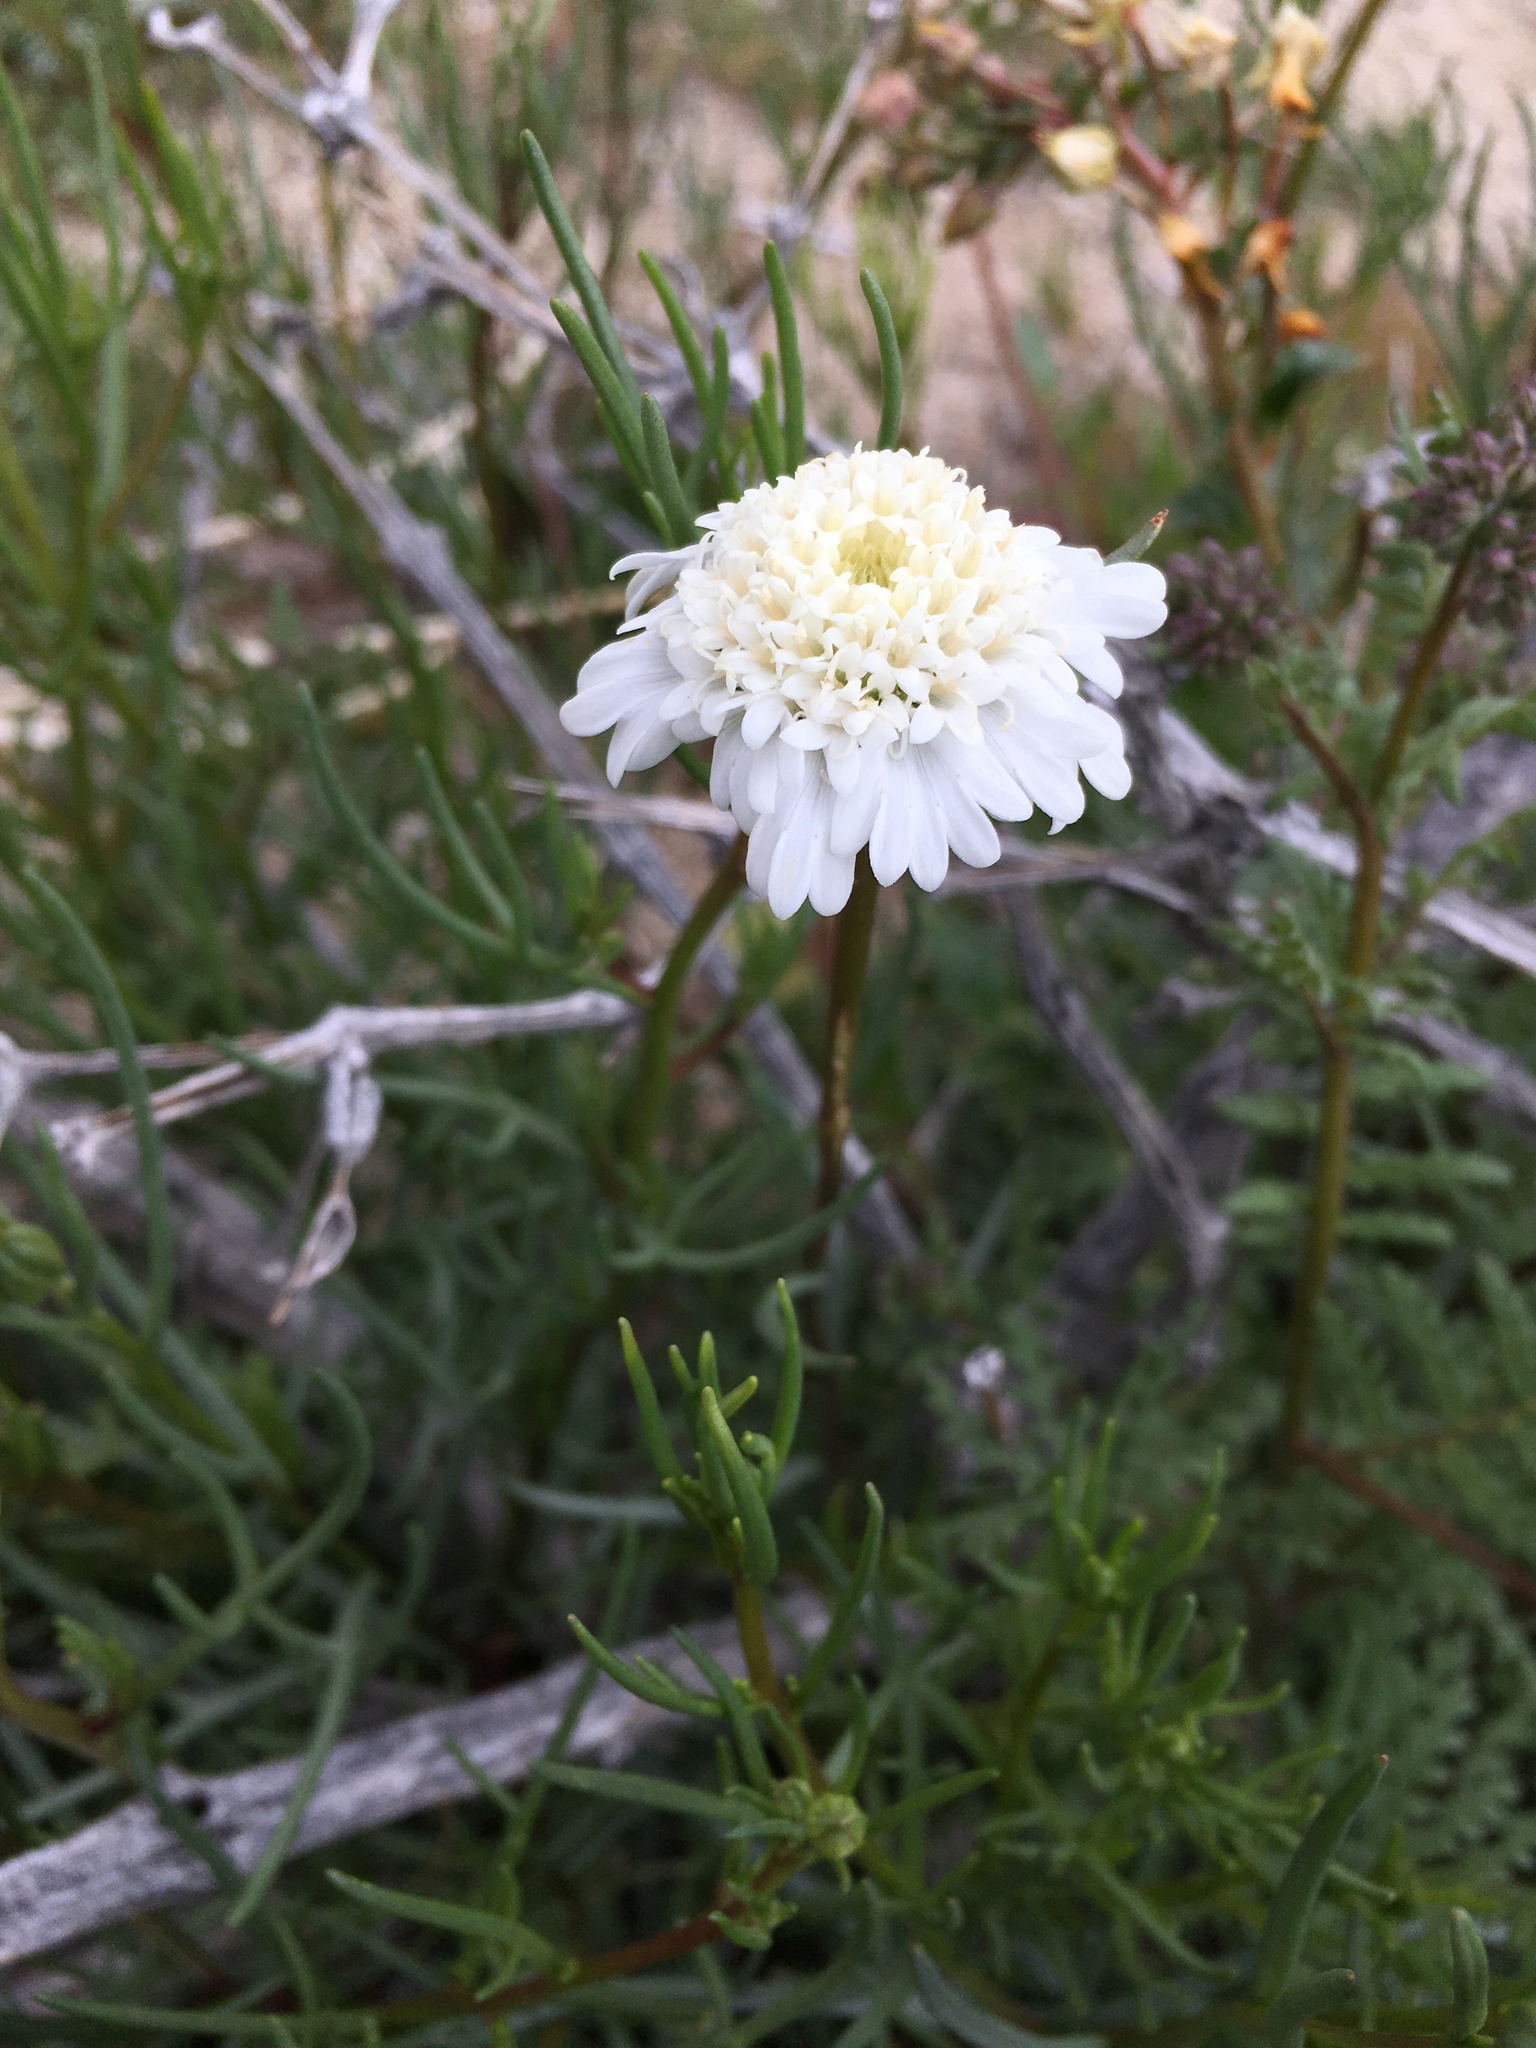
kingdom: Plantae
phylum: Tracheophyta
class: Magnoliopsida
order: Asterales
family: Asteraceae
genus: Chaenactis
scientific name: Chaenactis fremontii
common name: Fremont pincushion
